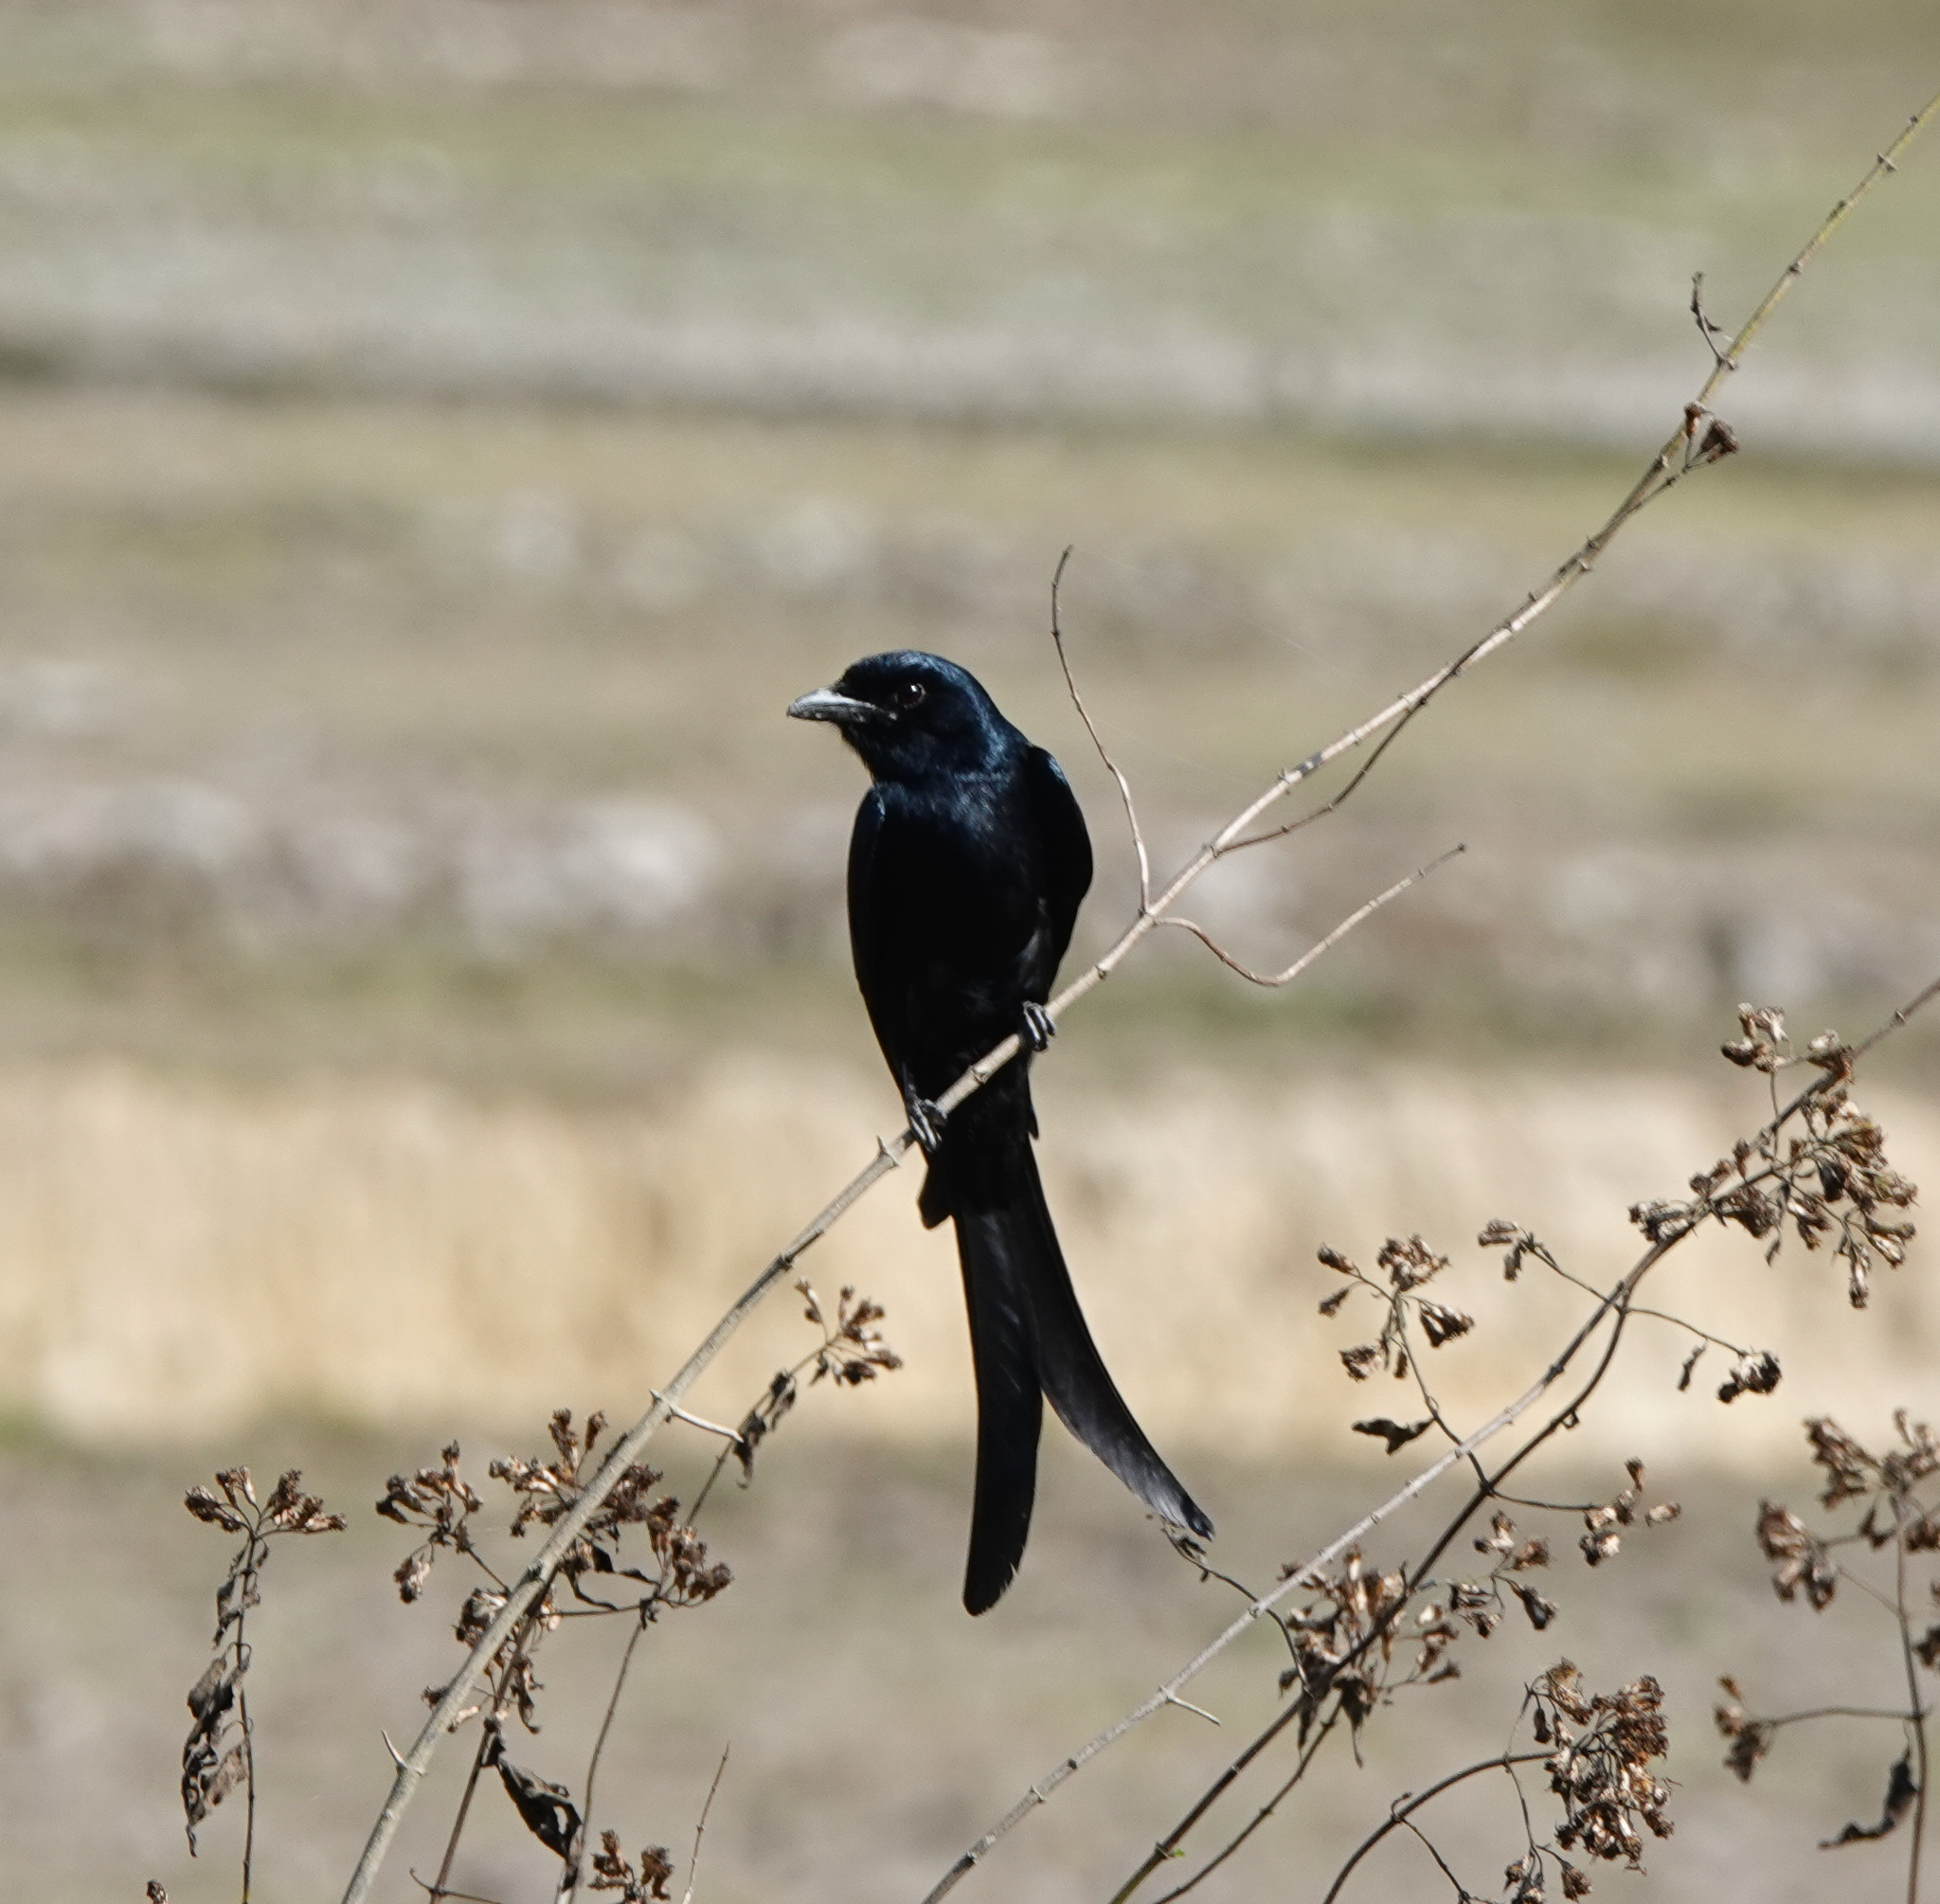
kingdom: Animalia
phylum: Chordata
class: Aves
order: Passeriformes
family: Dicruridae
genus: Dicrurus
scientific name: Dicrurus macrocercus
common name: Black drongo
